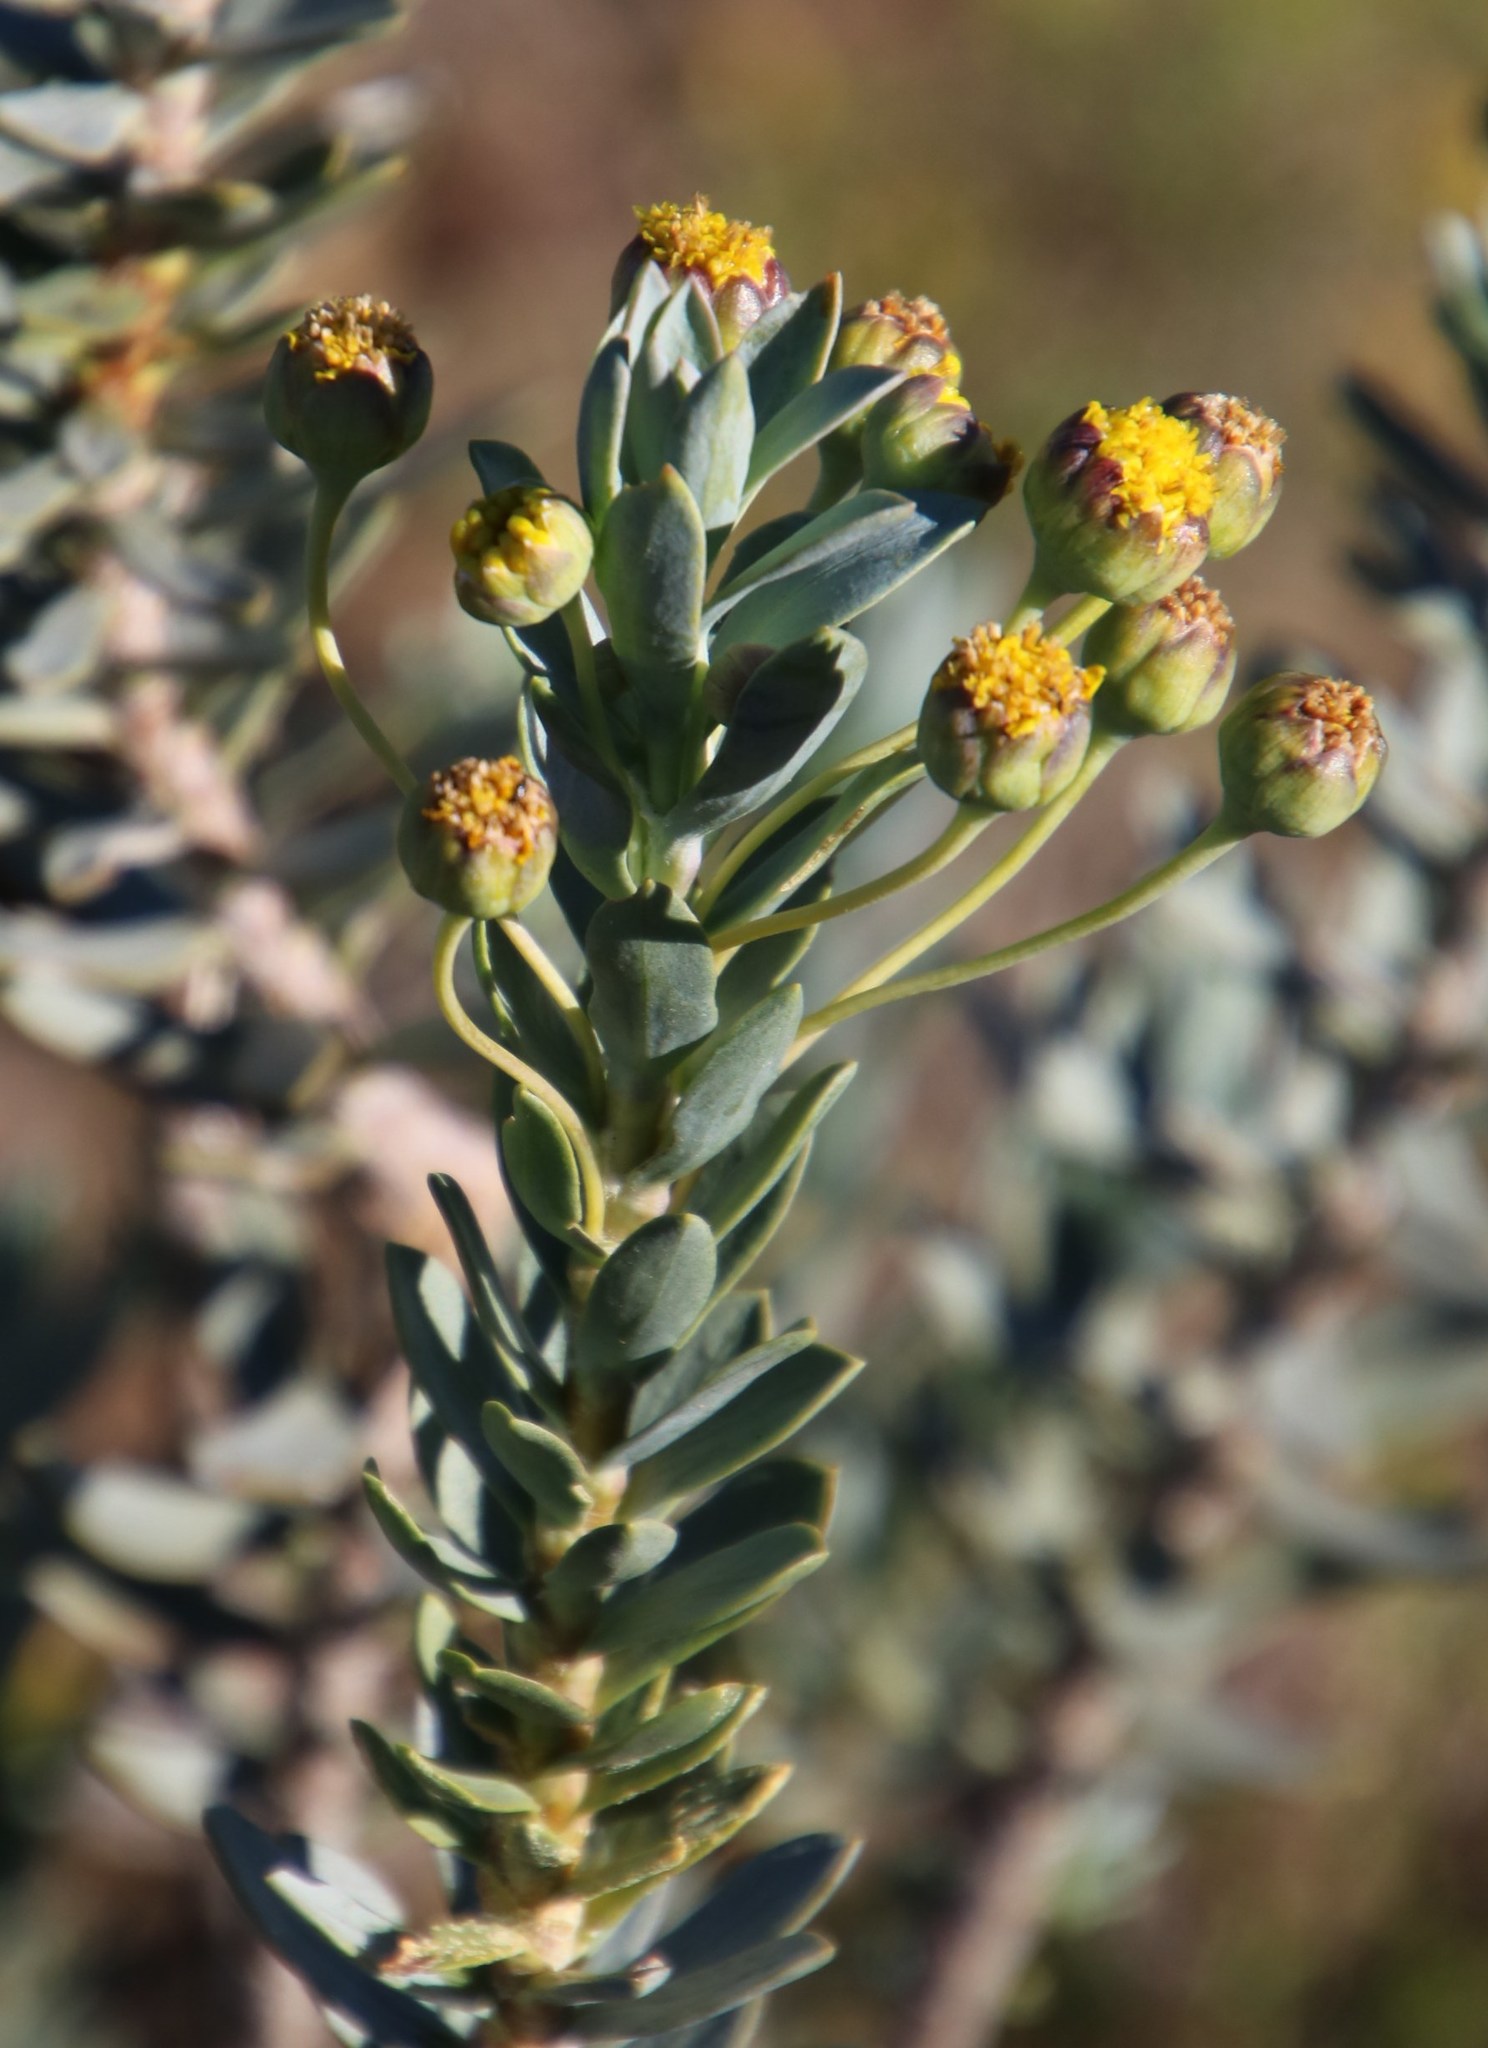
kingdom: Plantae
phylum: Tracheophyta
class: Magnoliopsida
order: Asterales
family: Asteraceae
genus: Euryops
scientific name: Euryops lateriflorus
